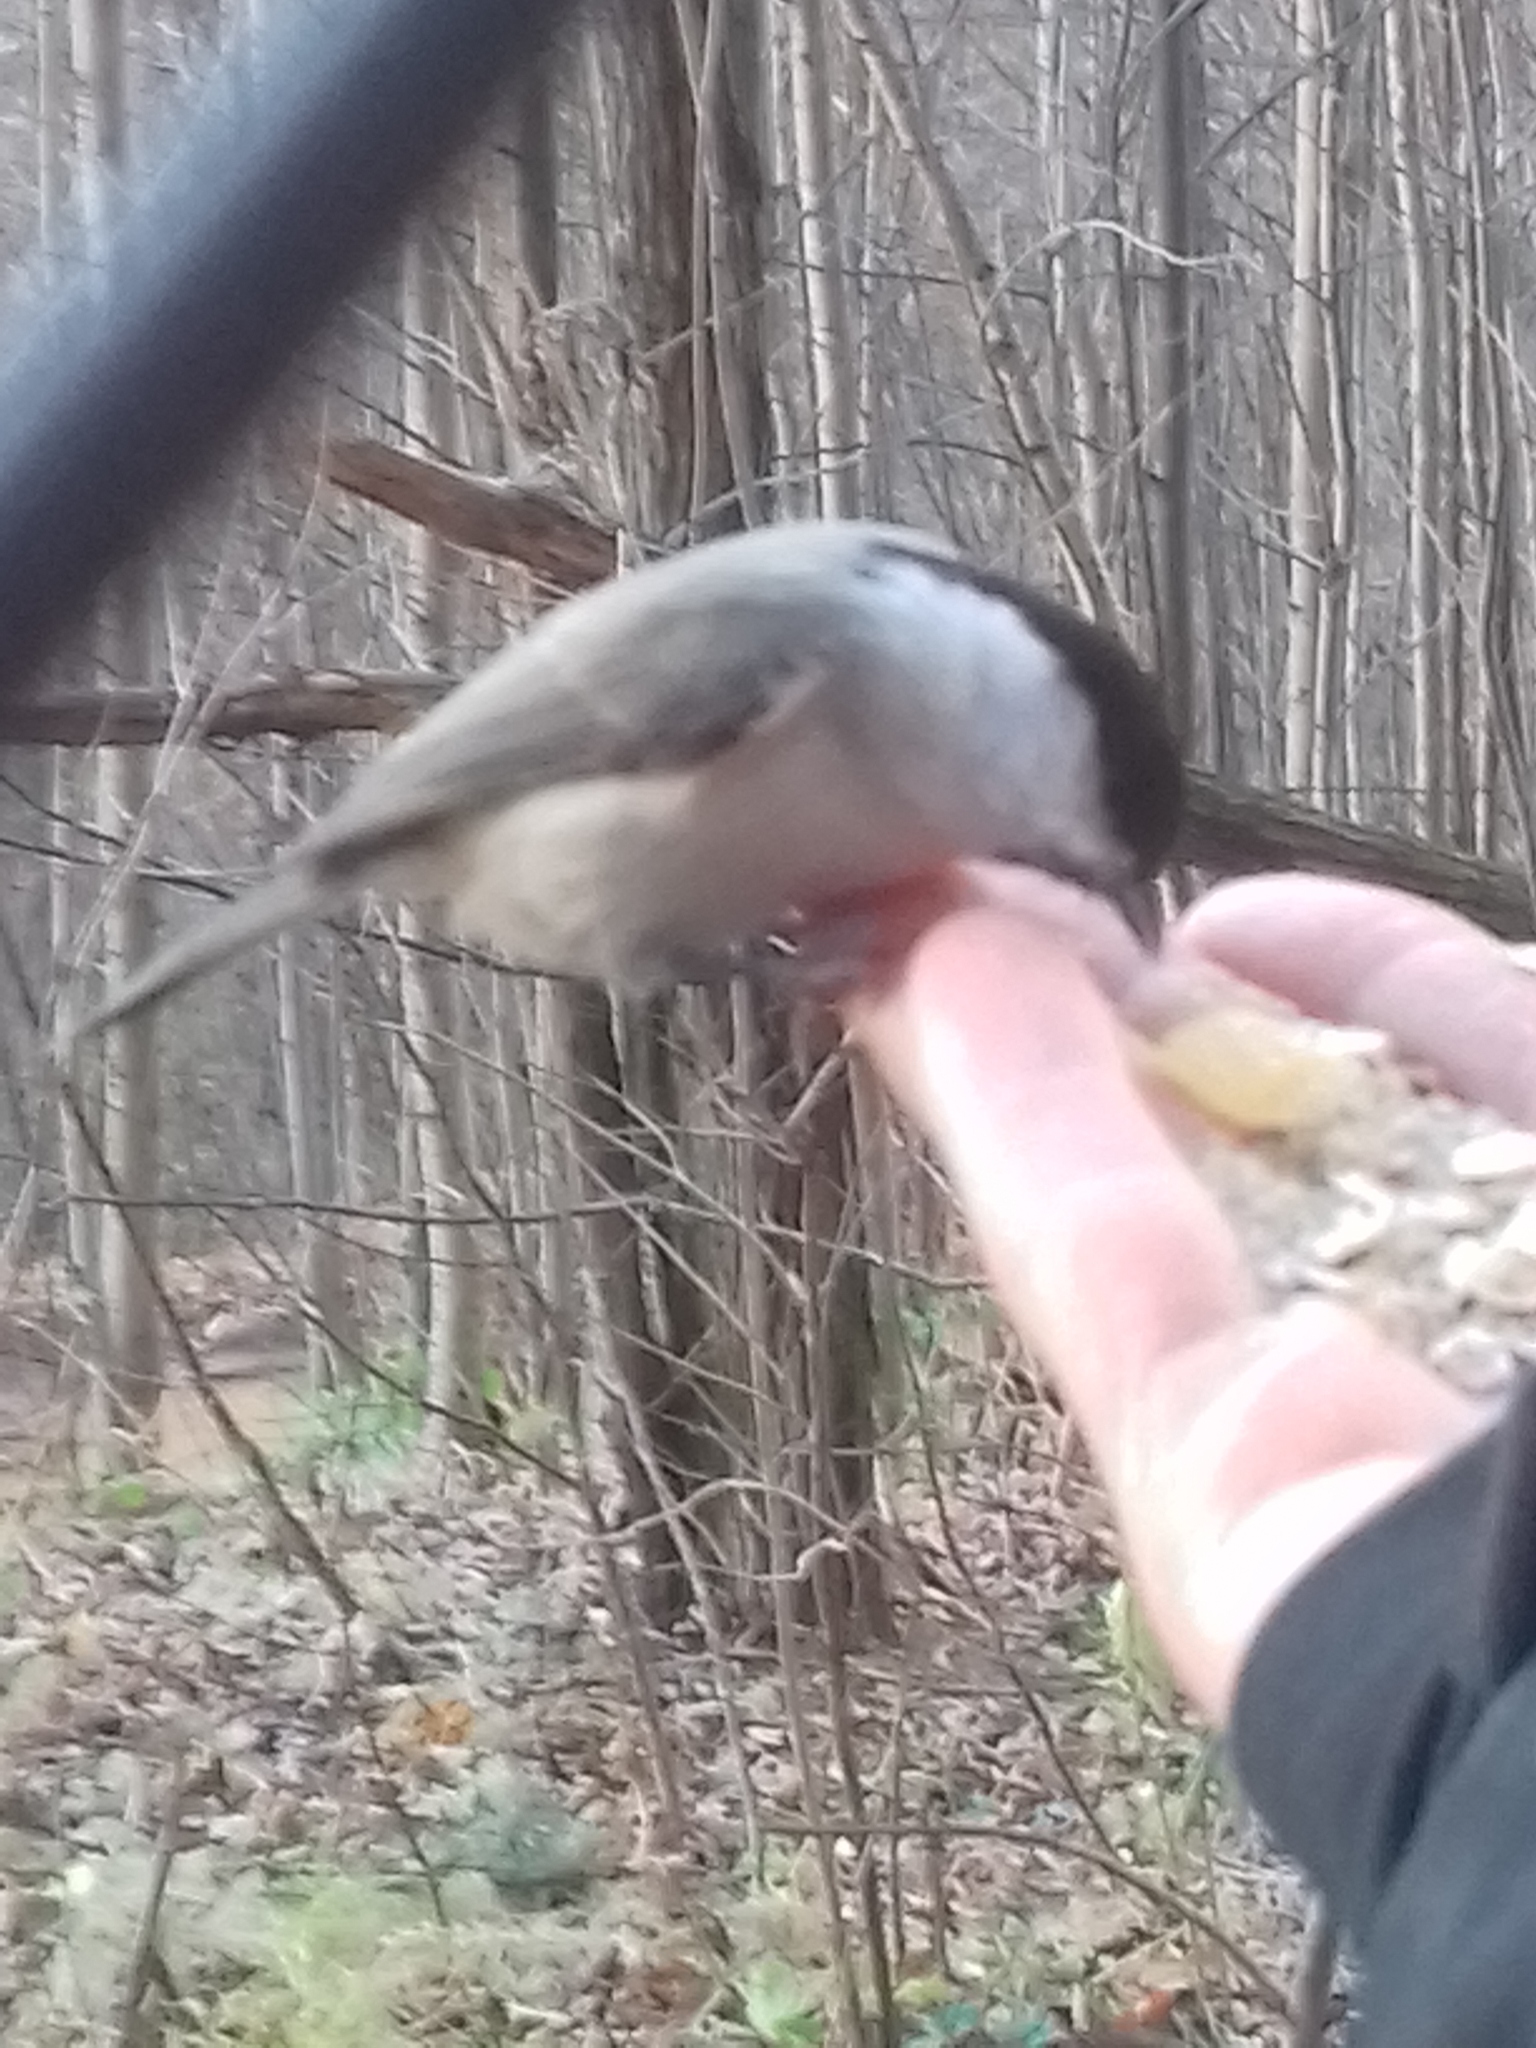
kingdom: Animalia
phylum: Chordata
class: Aves
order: Passeriformes
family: Paridae
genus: Poecile
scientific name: Poecile montanus
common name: Willow tit
